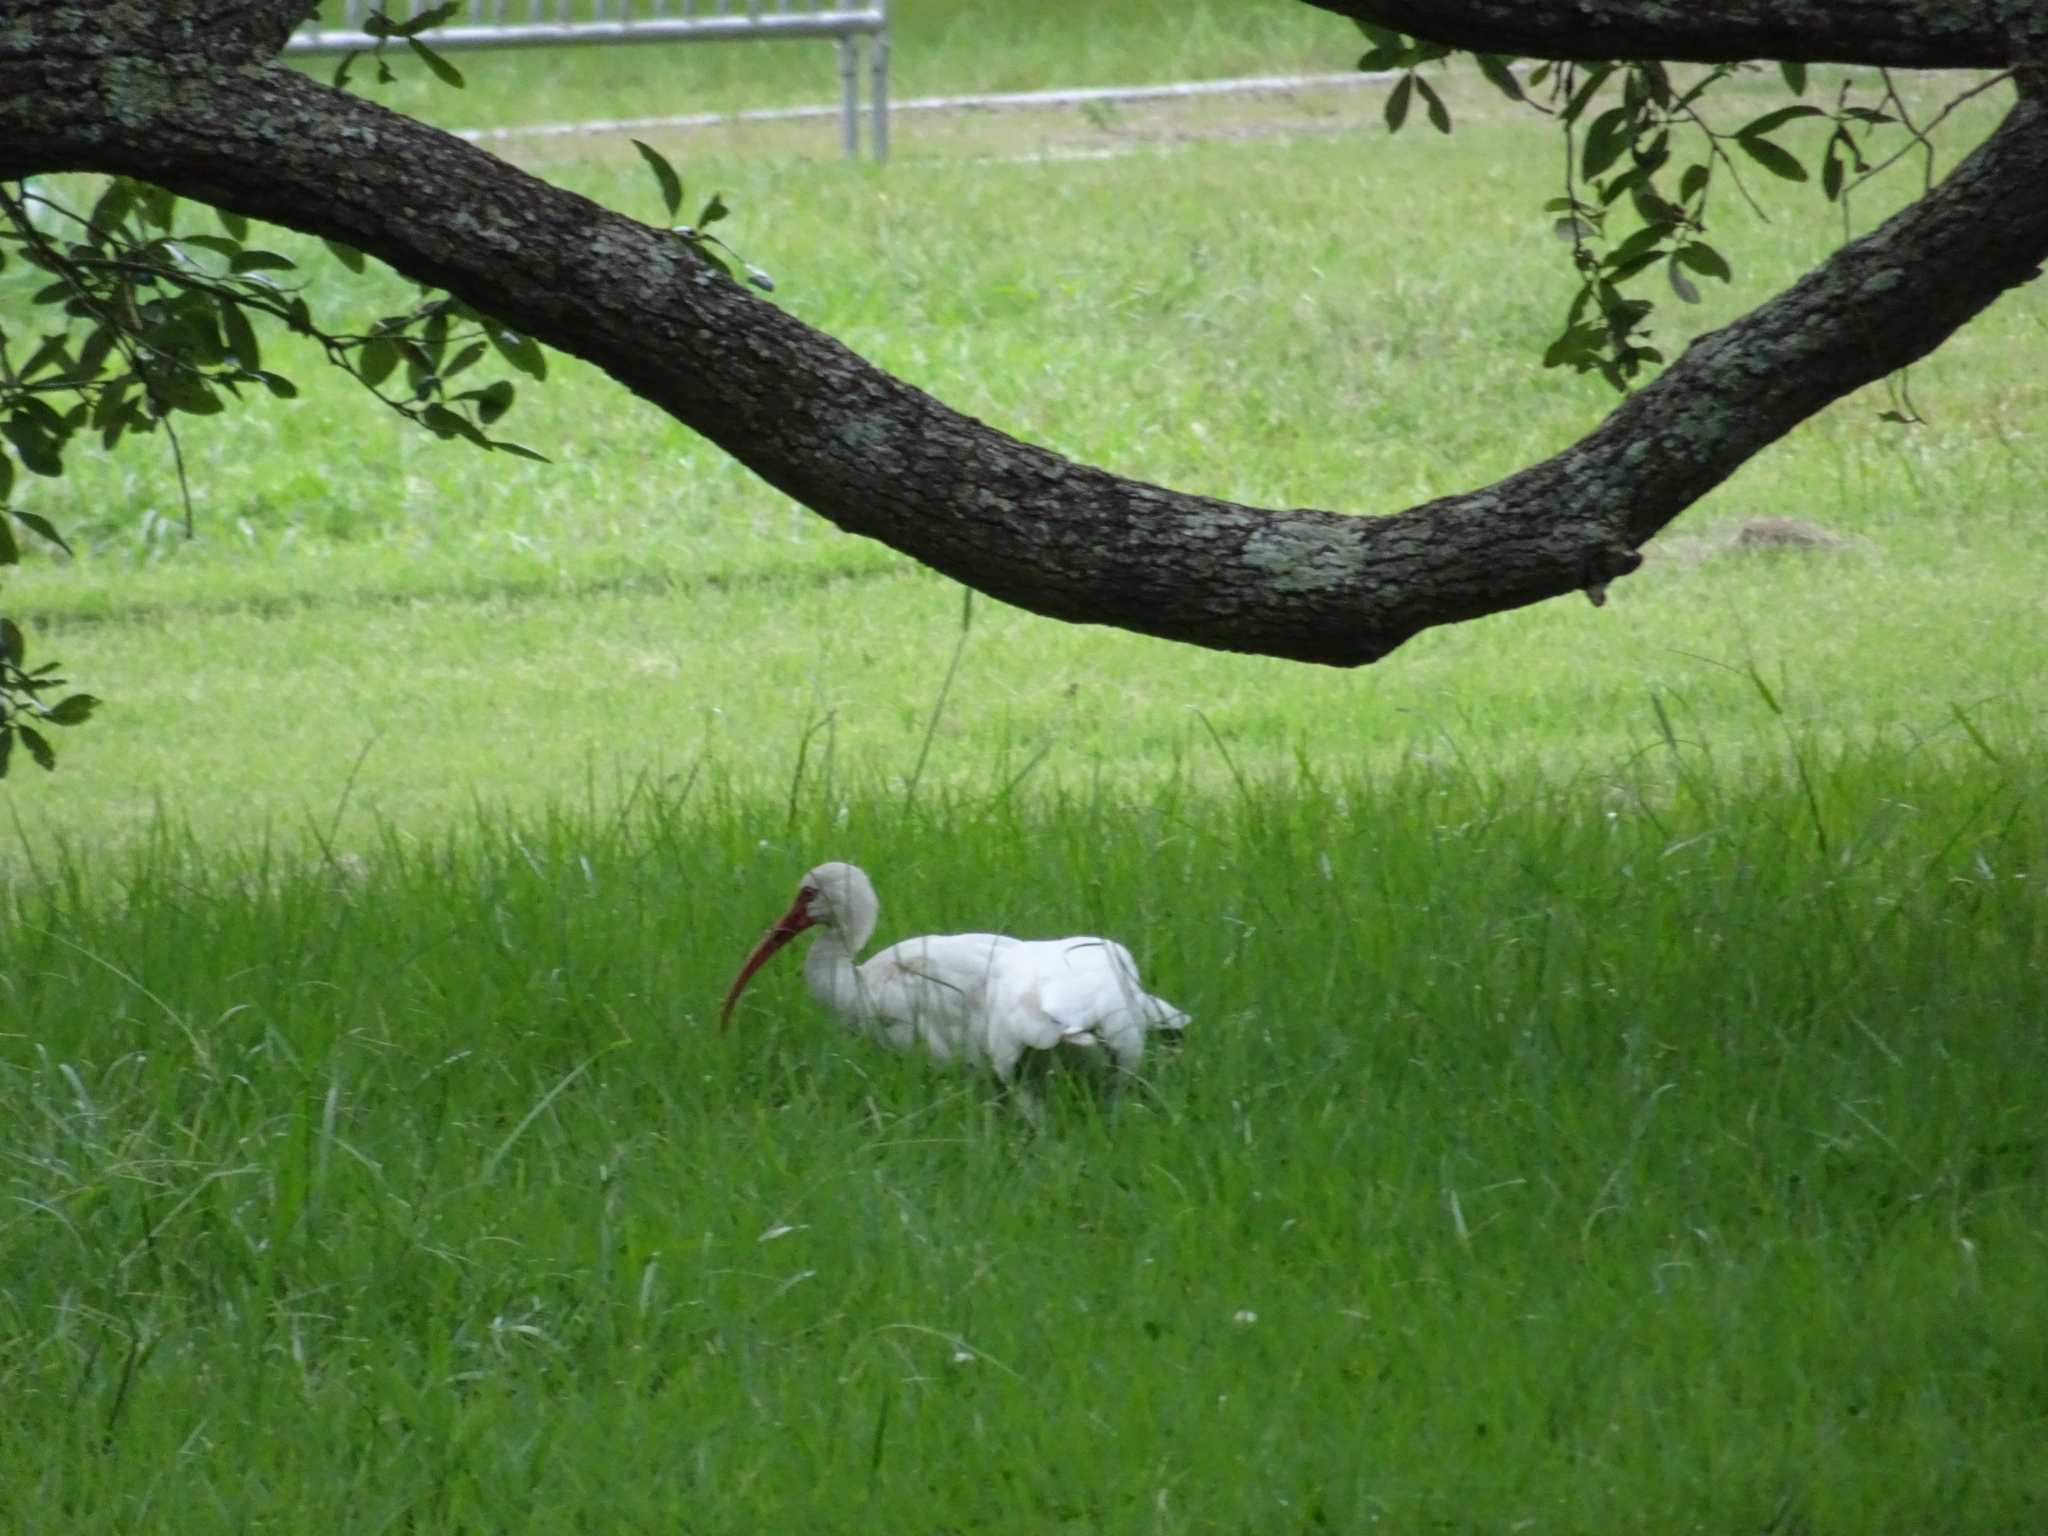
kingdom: Animalia
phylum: Chordata
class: Aves
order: Pelecaniformes
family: Threskiornithidae
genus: Eudocimus
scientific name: Eudocimus albus
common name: White ibis
